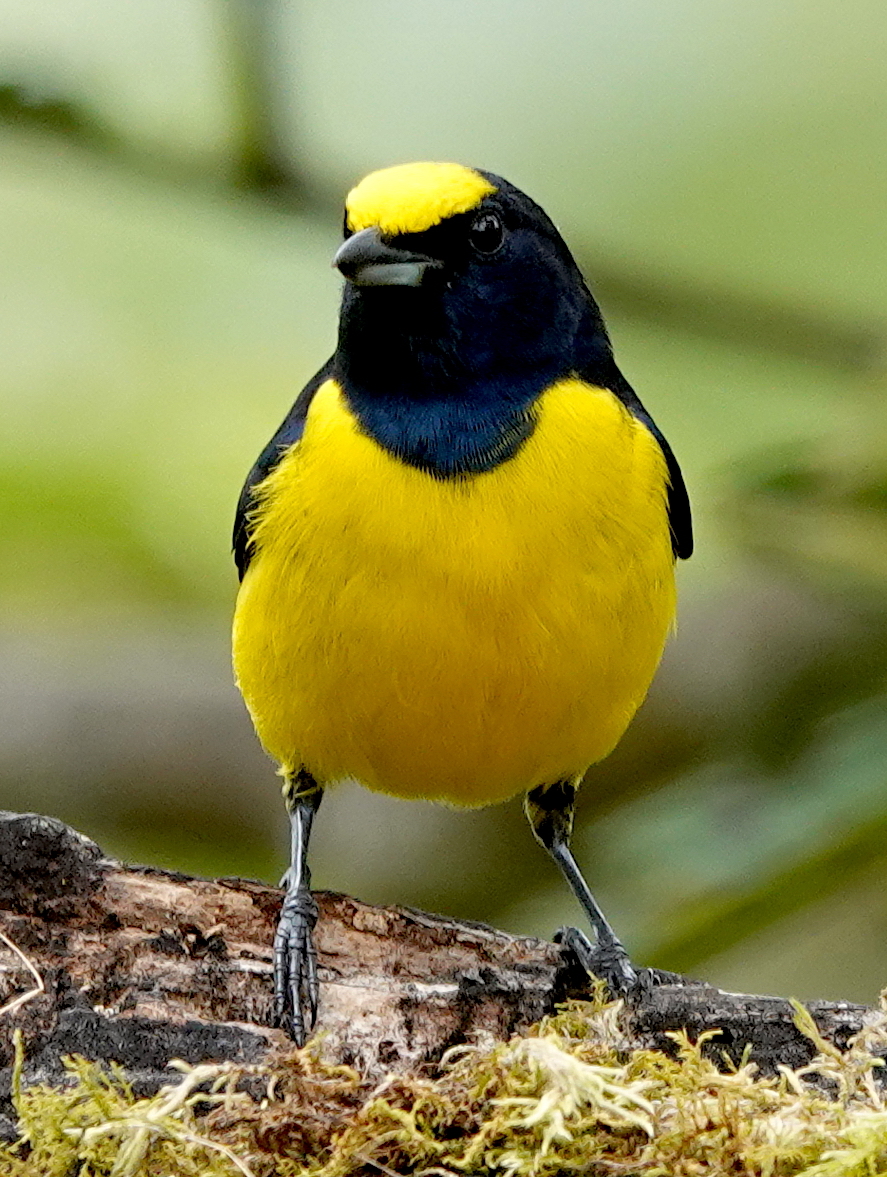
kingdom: Animalia
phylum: Chordata
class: Aves
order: Passeriformes
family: Fringillidae
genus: Euphonia
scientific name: Euphonia imitans
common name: Spot-crowned euphonia
